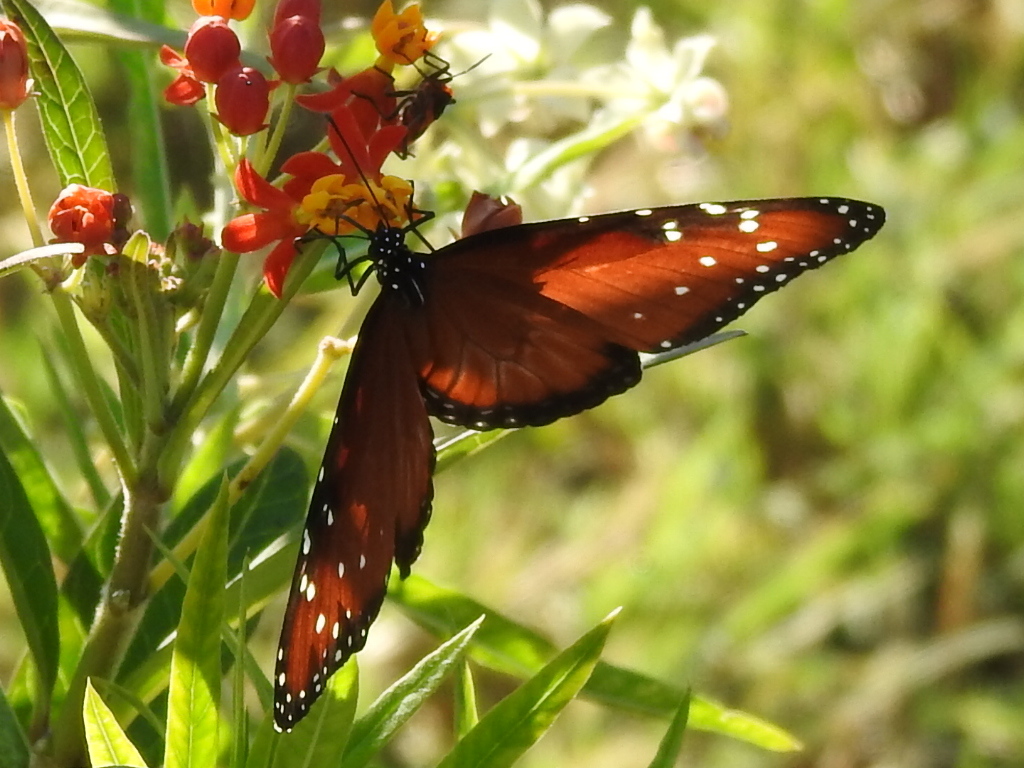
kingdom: Animalia
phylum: Arthropoda
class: Insecta
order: Lepidoptera
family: Nymphalidae
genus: Danaus
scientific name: Danaus gilippus
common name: Queen
